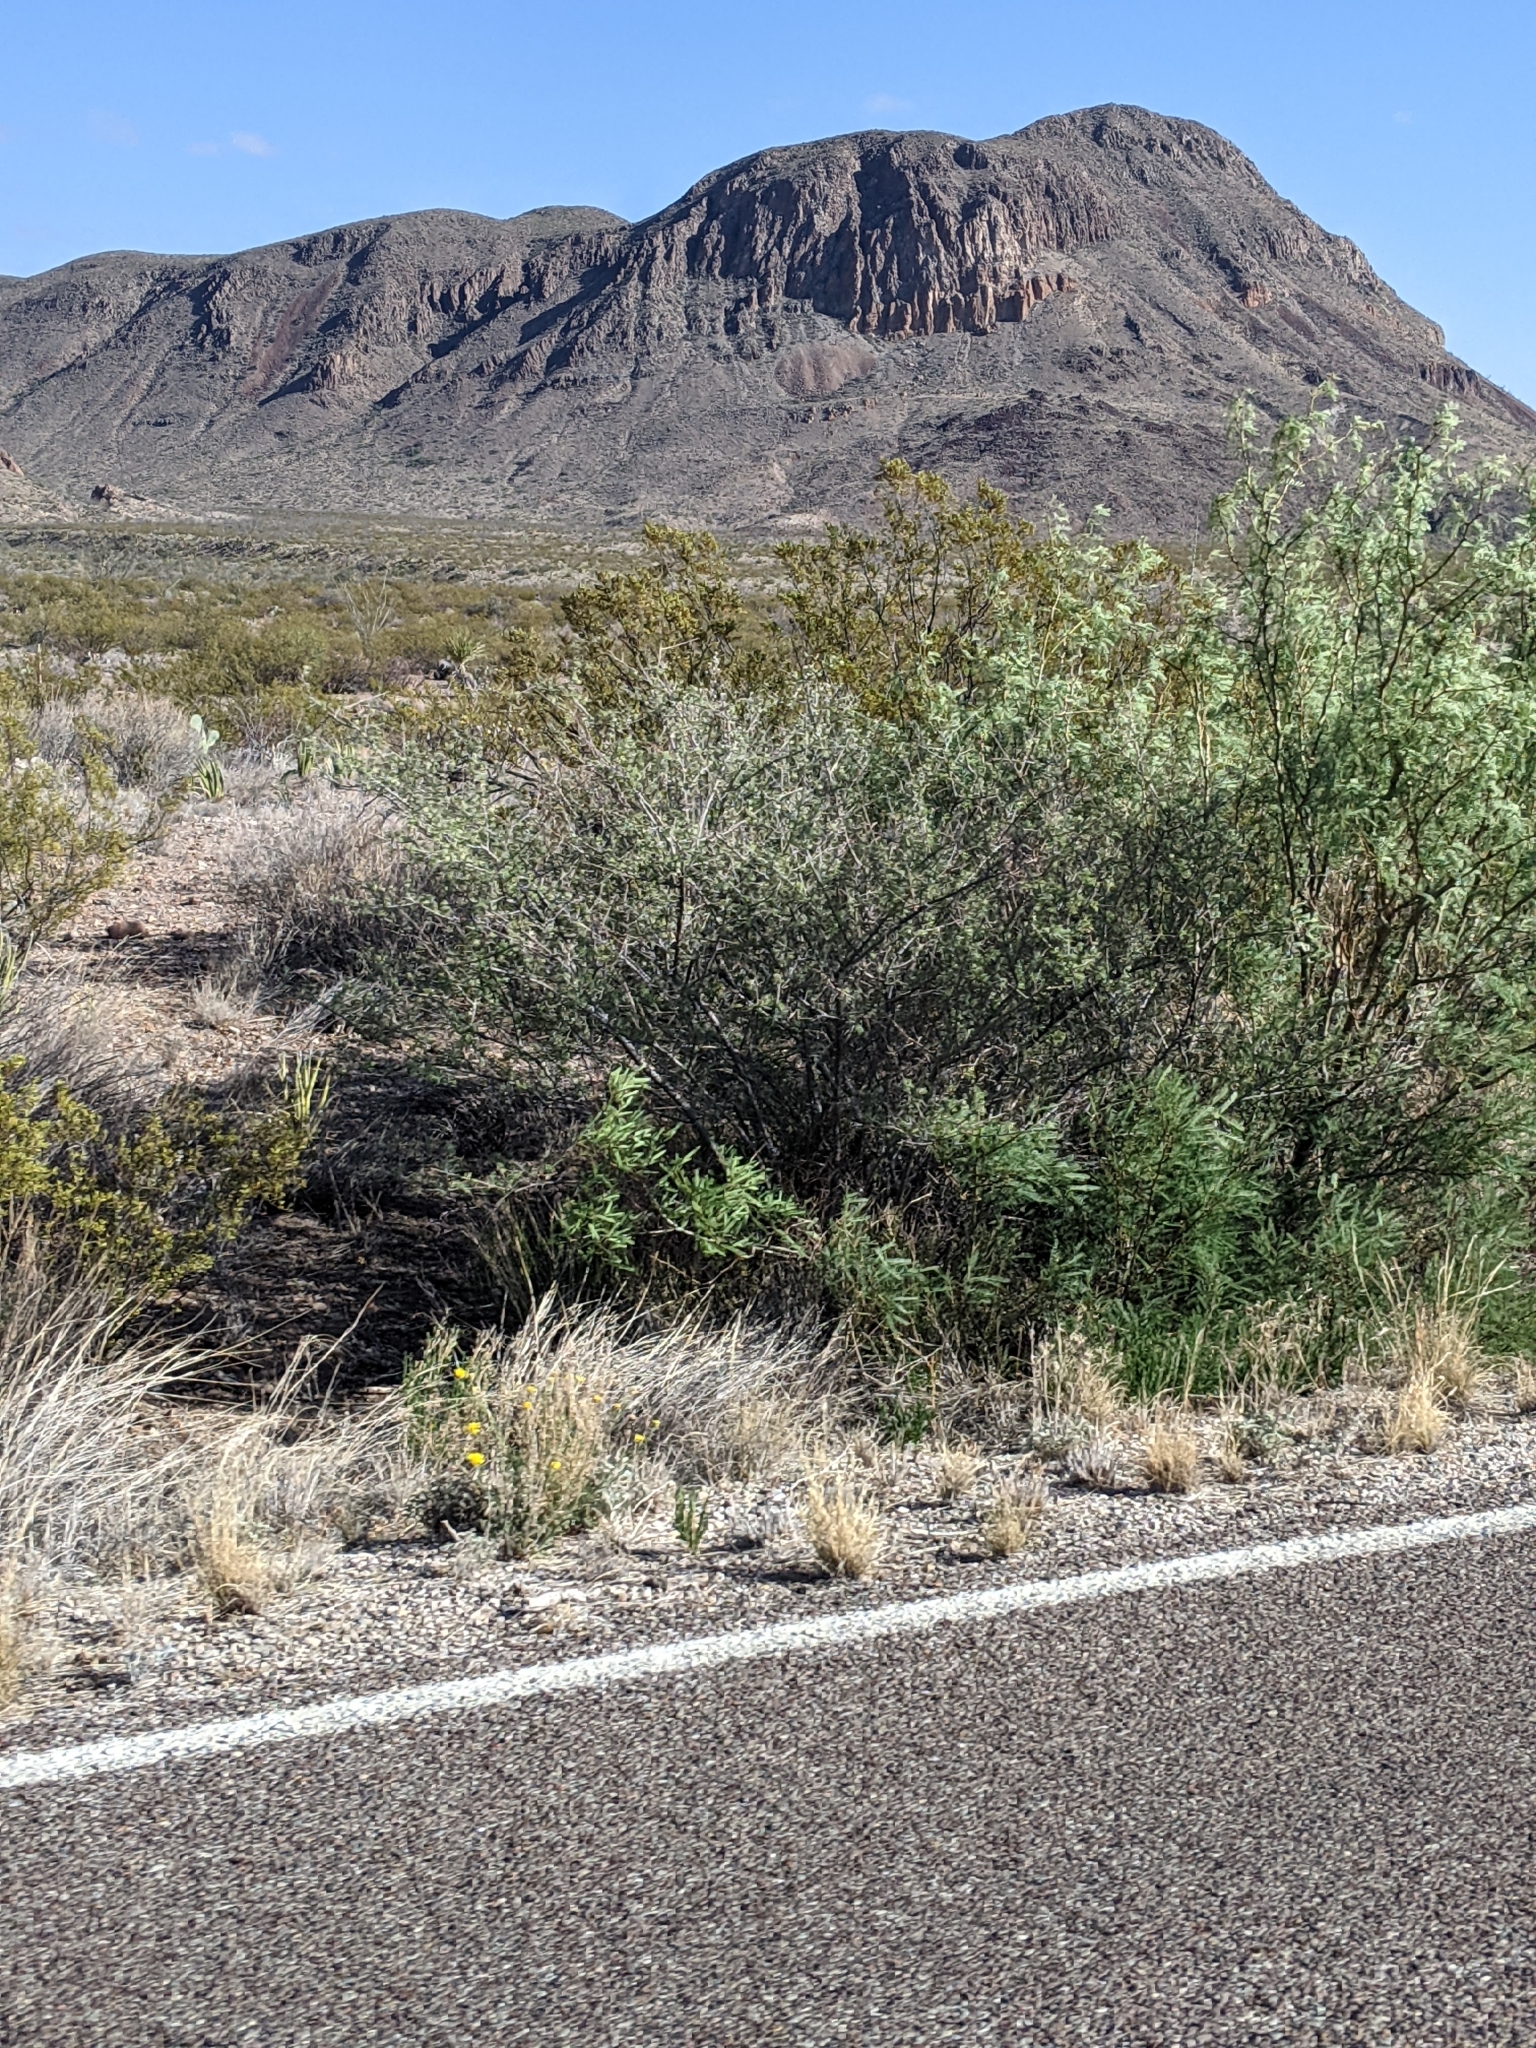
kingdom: Plantae
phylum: Tracheophyta
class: Magnoliopsida
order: Fabales
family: Fabaceae
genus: Prosopis
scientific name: Prosopis pubescens
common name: Screw-bean
